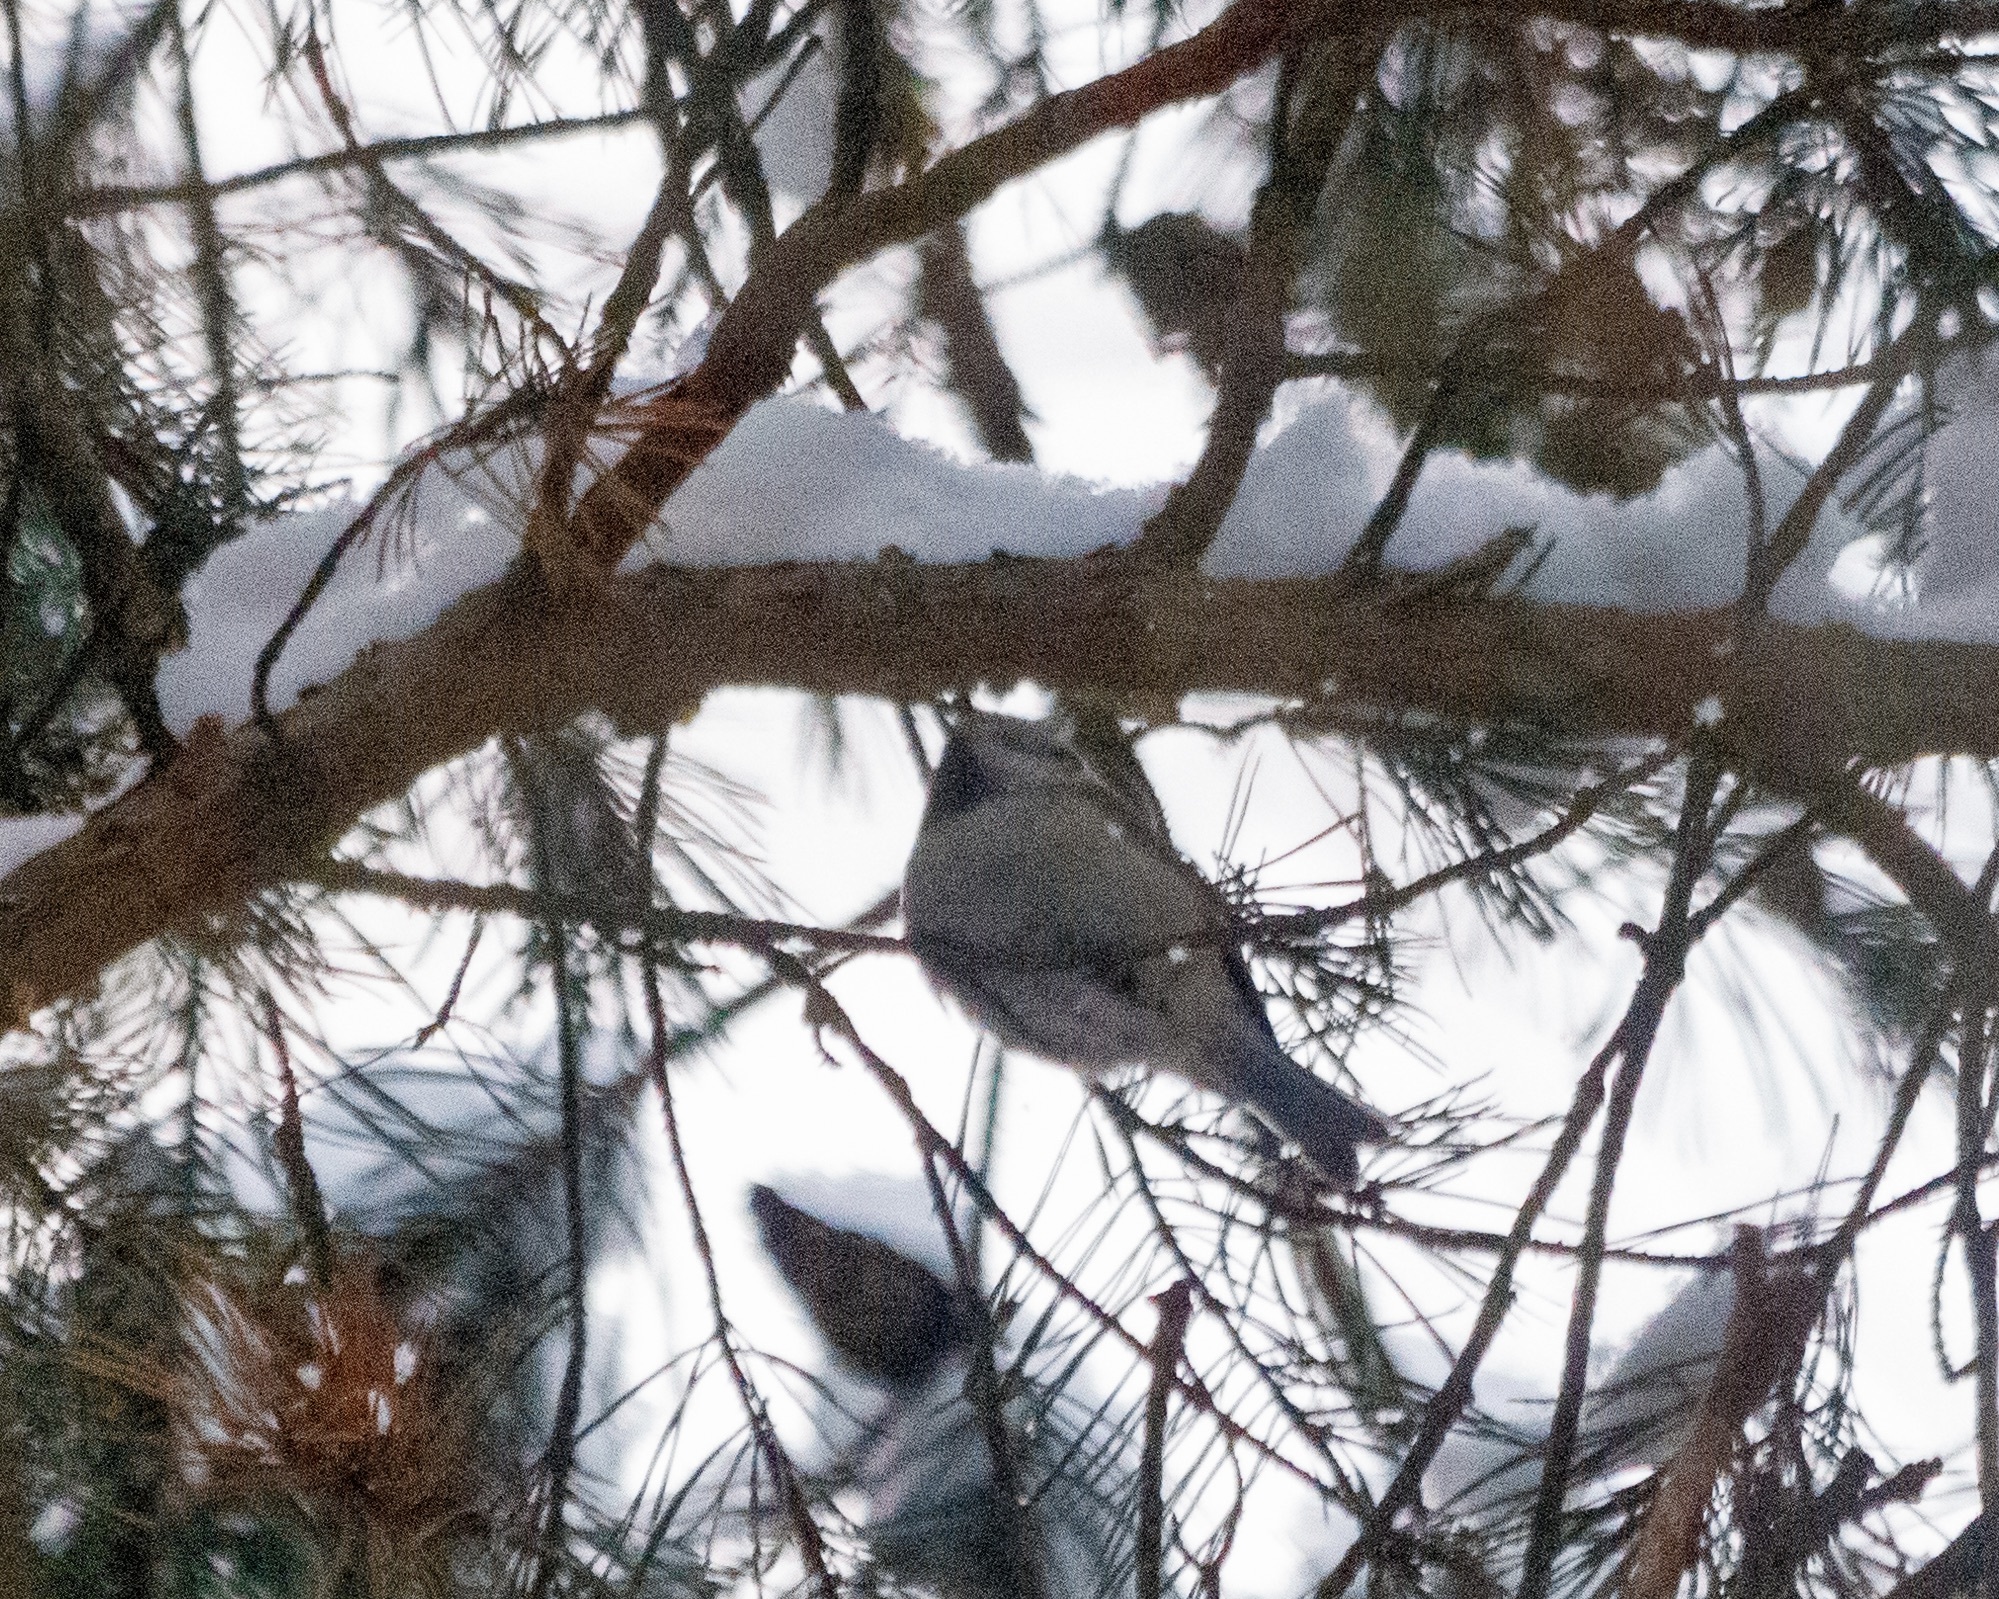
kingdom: Animalia
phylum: Chordata
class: Aves
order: Passeriformes
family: Paridae
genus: Lophophanes
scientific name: Lophophanes cristatus
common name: European crested tit
